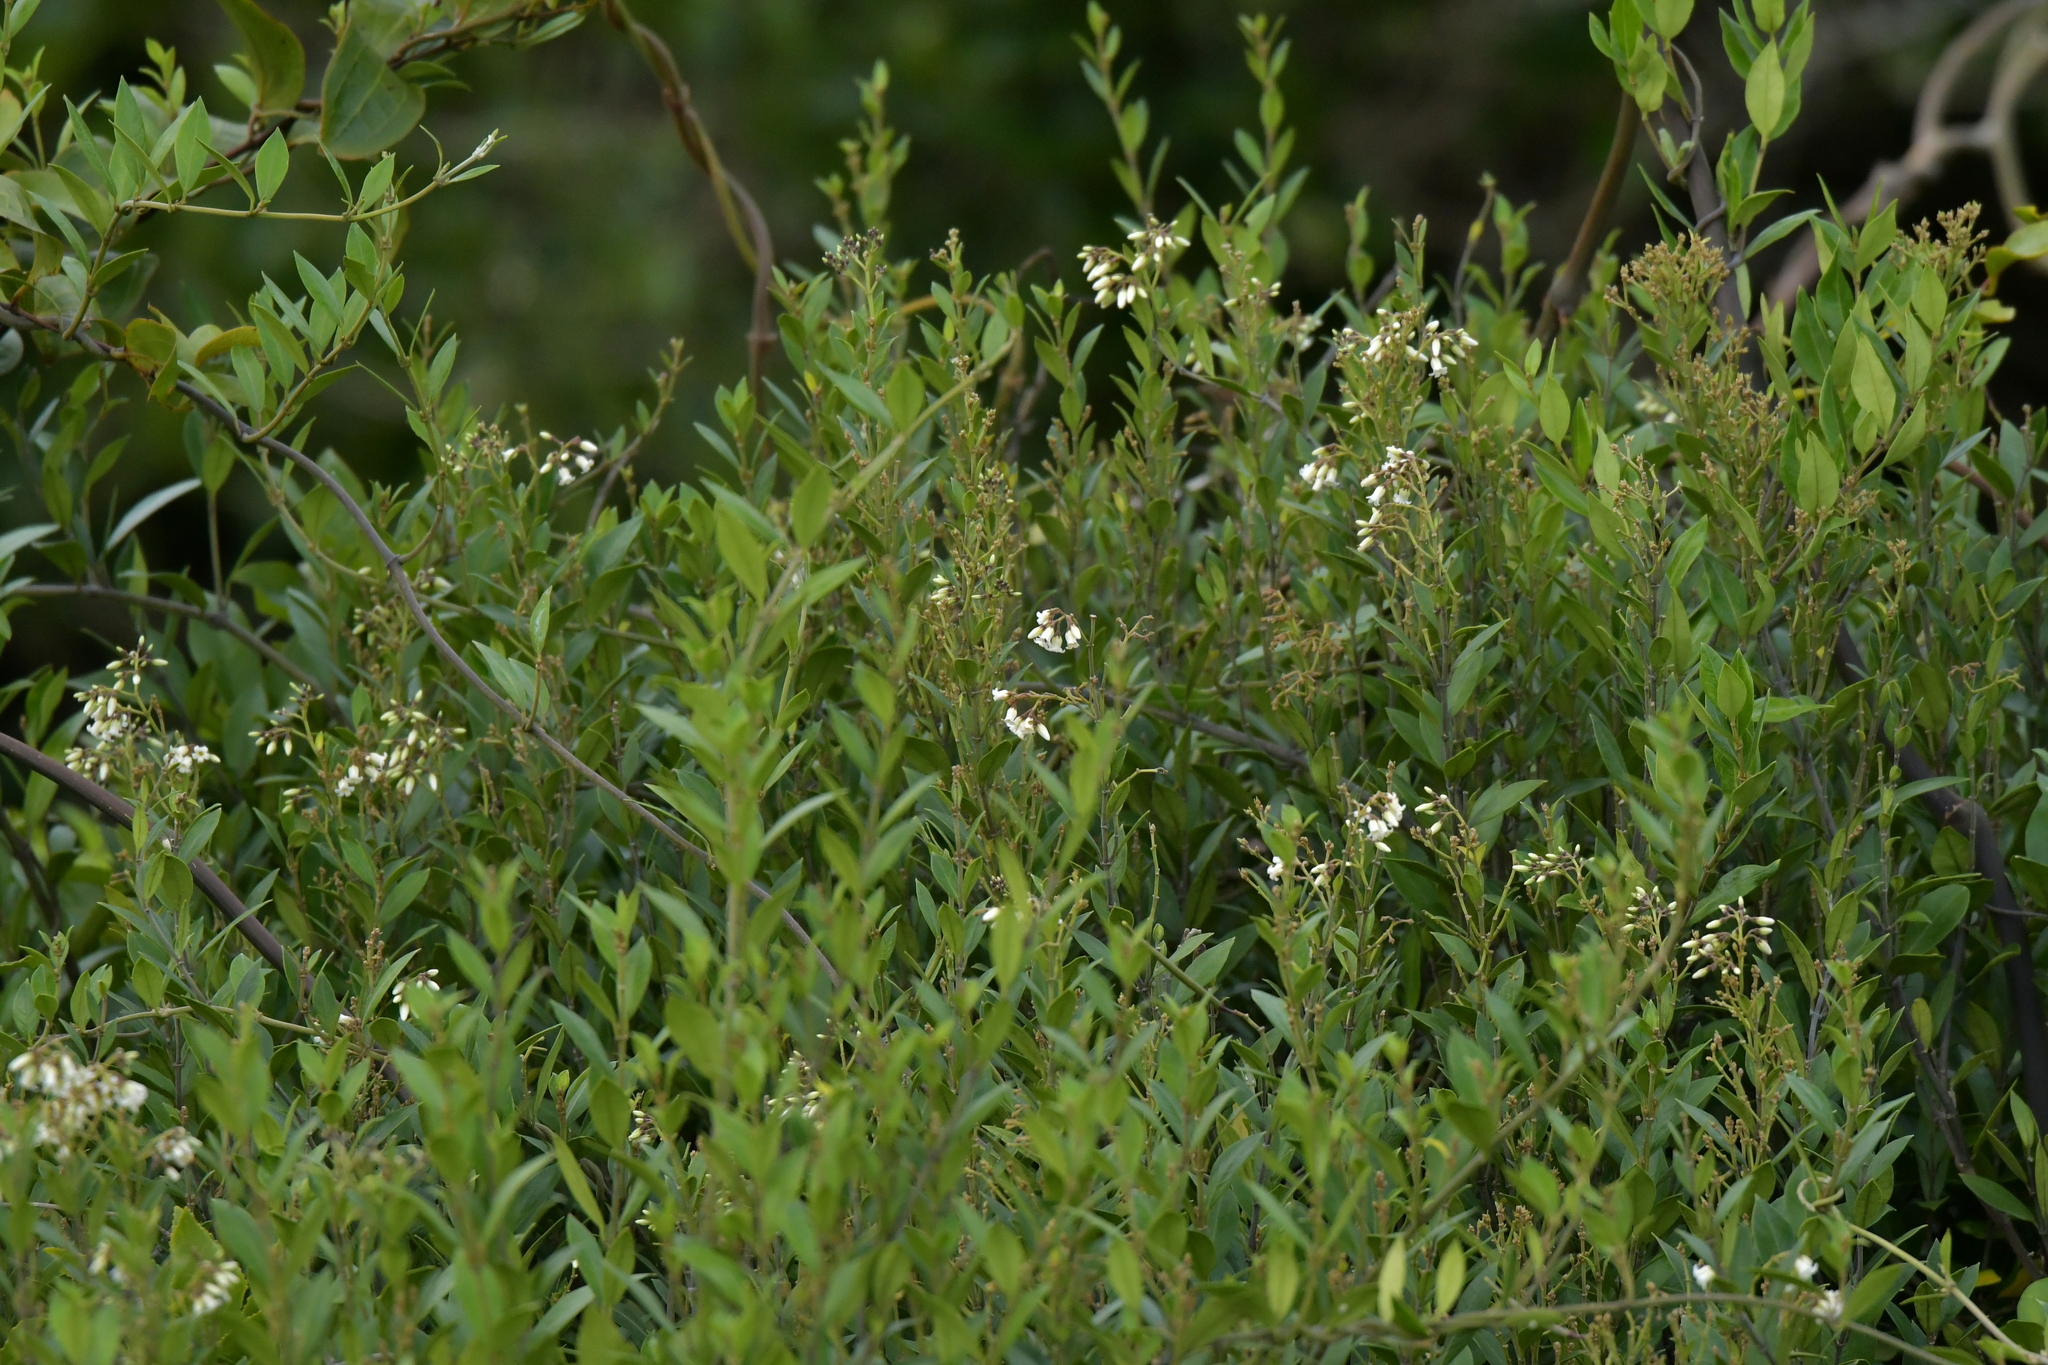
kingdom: Plantae
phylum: Tracheophyta
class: Magnoliopsida
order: Gentianales
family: Apocynaceae
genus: Parsonsia
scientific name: Parsonsia heterophylla
